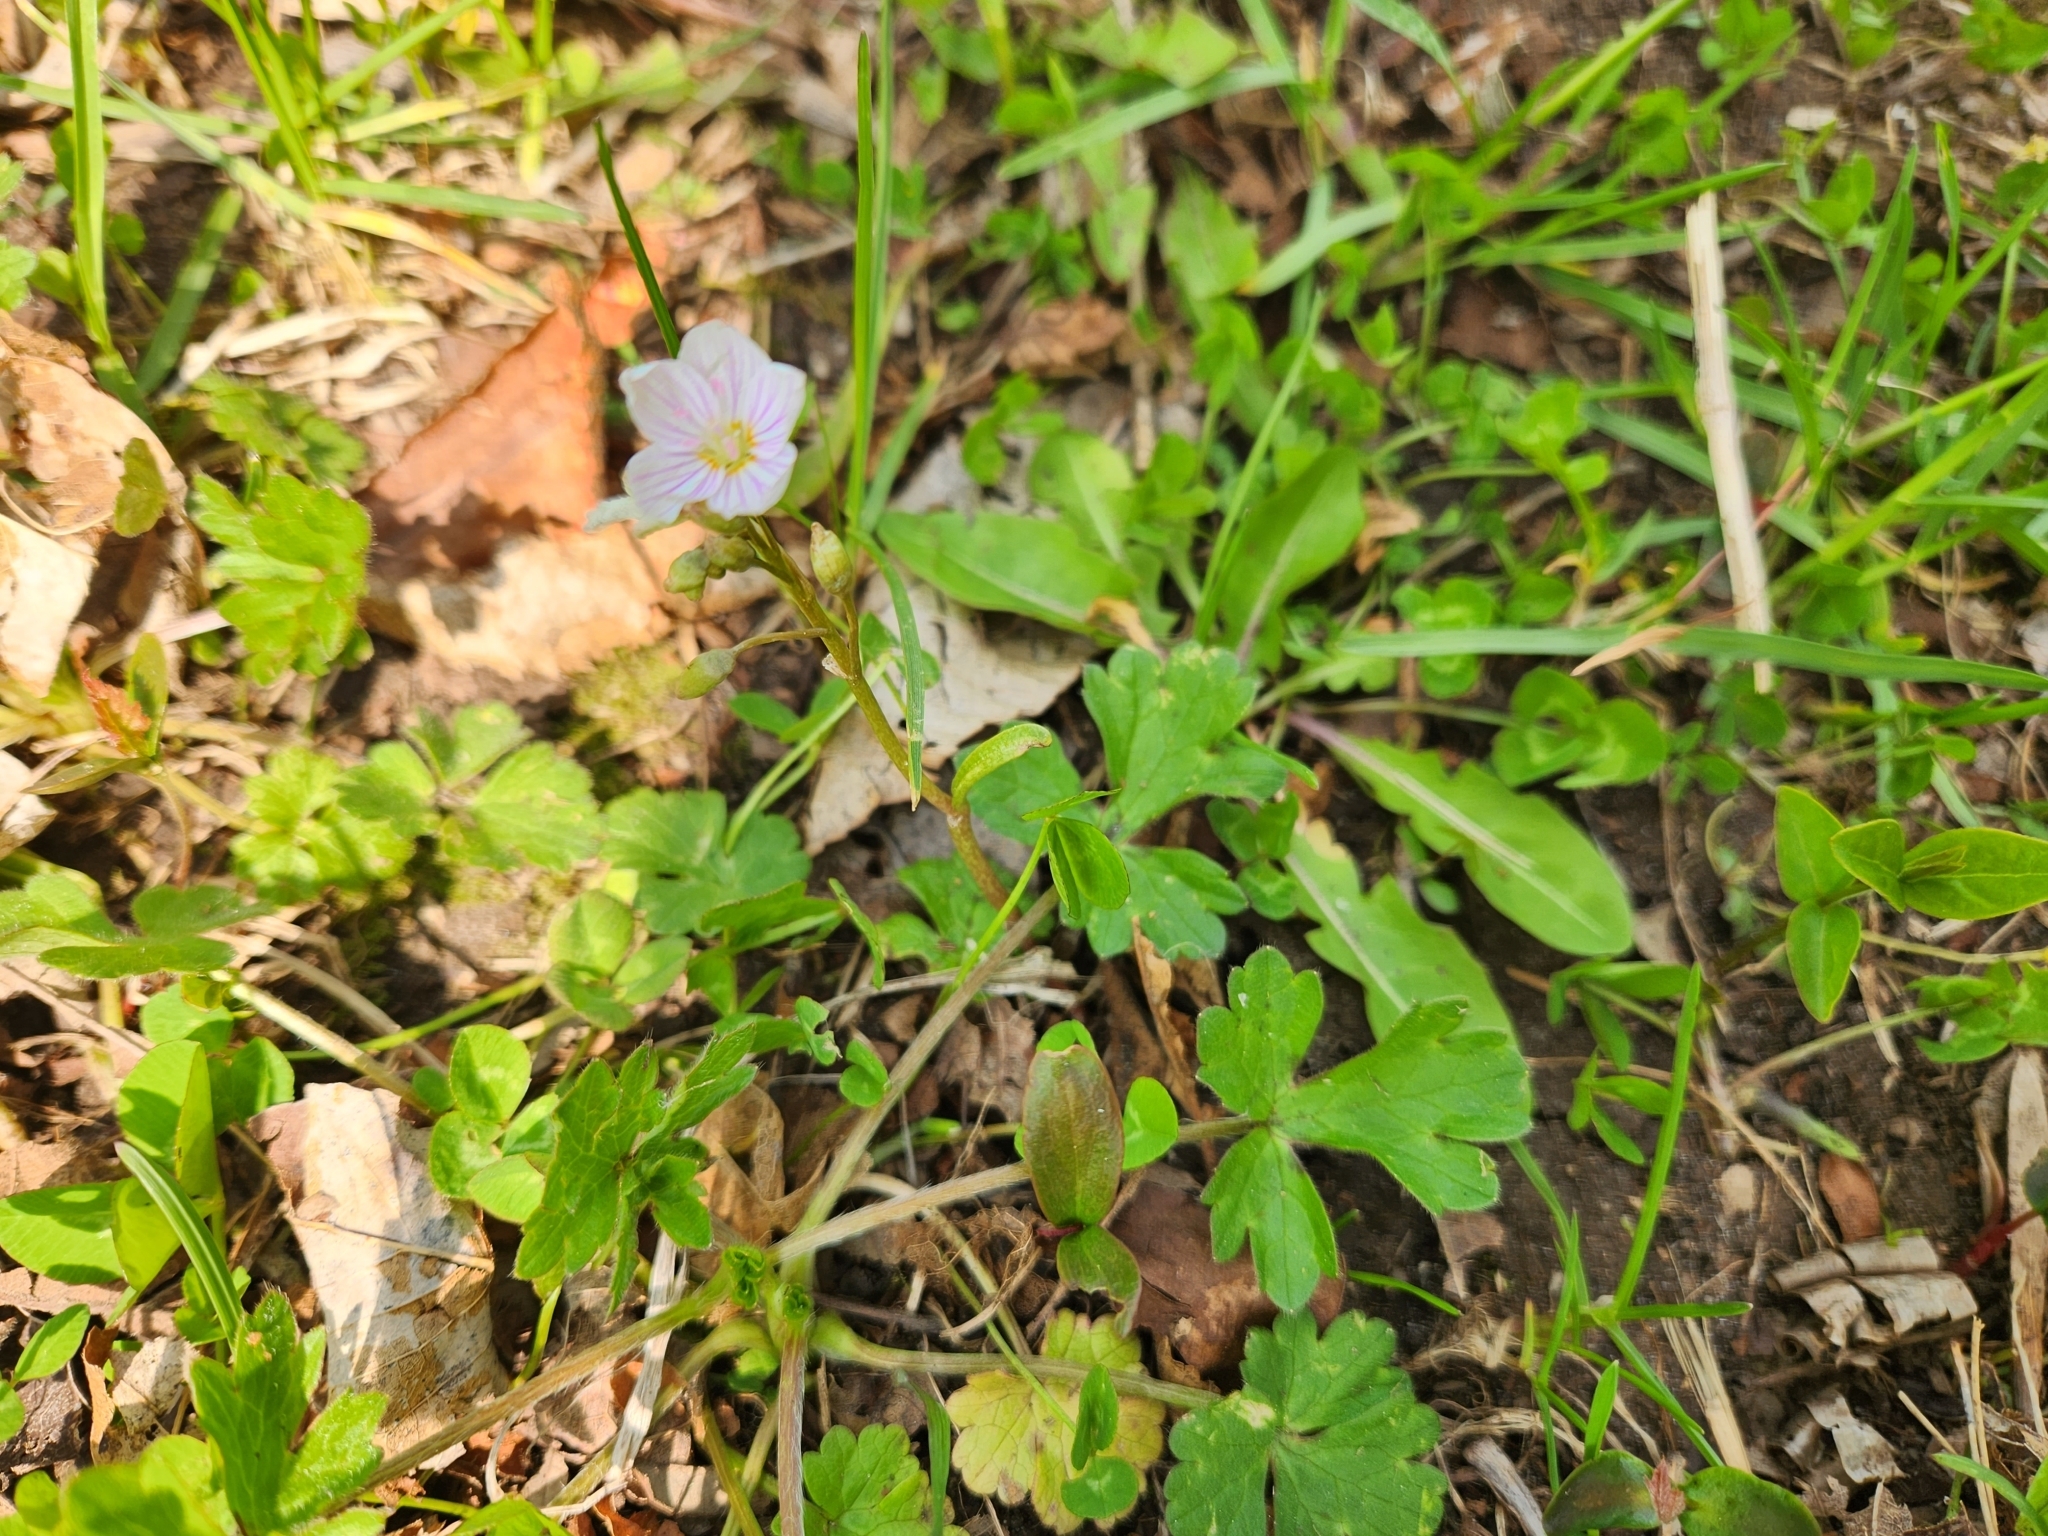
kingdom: Plantae
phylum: Tracheophyta
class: Magnoliopsida
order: Caryophyllales
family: Montiaceae
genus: Claytonia
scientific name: Claytonia virginica
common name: Virginia springbeauty
